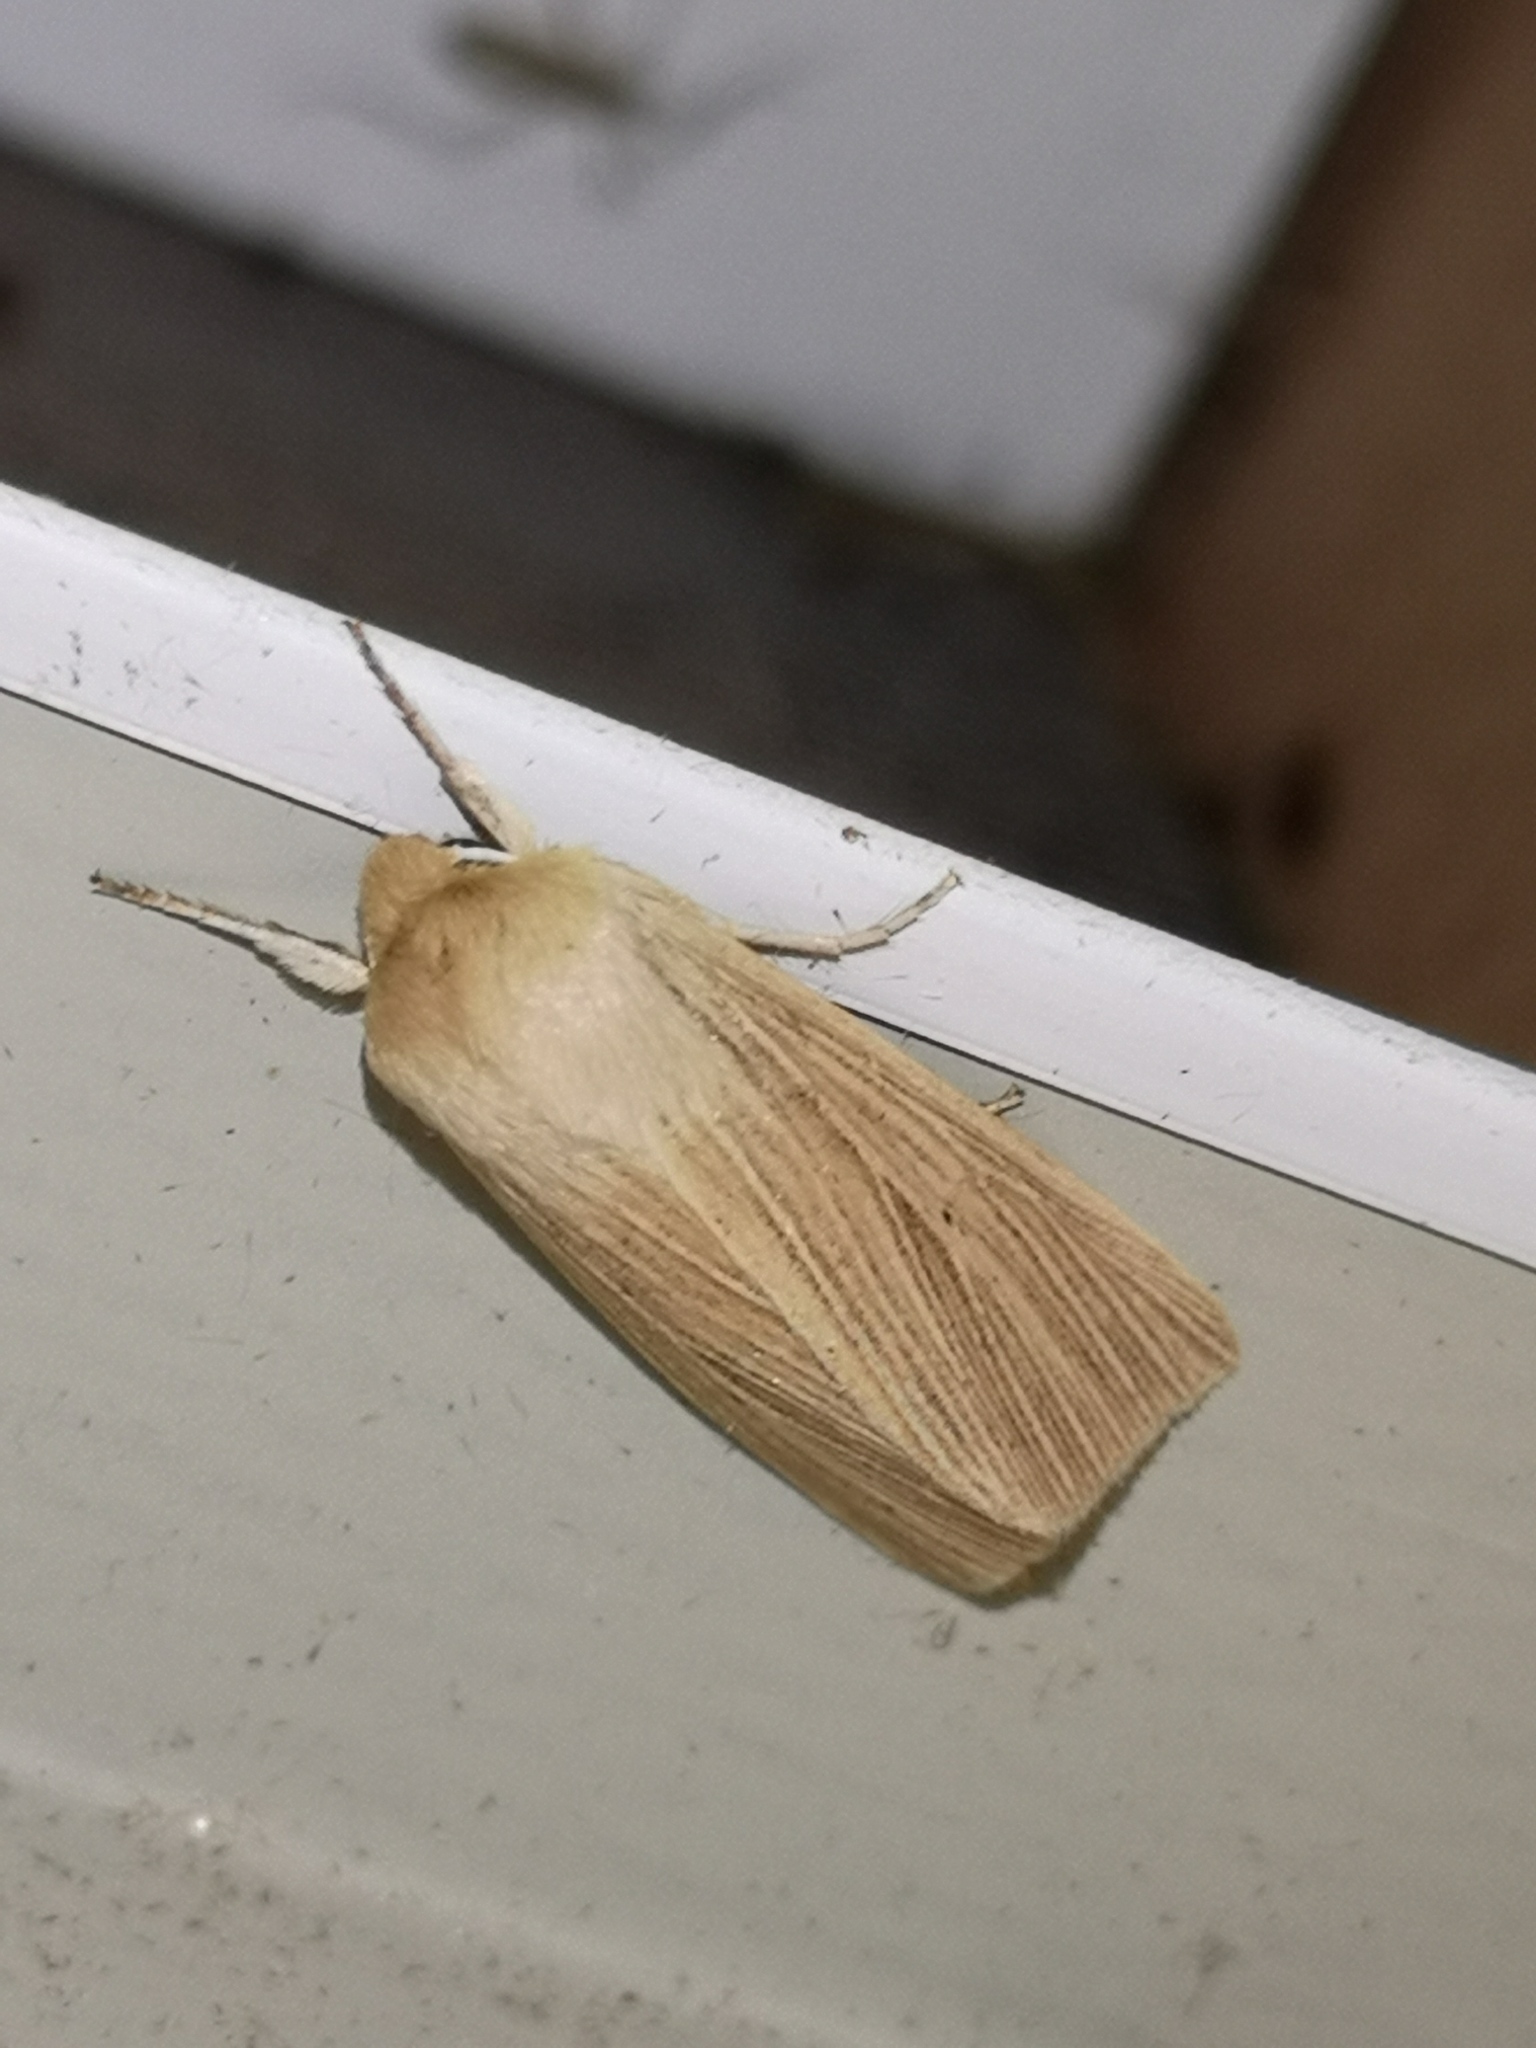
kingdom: Animalia
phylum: Arthropoda
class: Insecta
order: Lepidoptera
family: Noctuidae
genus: Mythimna
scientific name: Mythimna pallens
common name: Common wainscot
